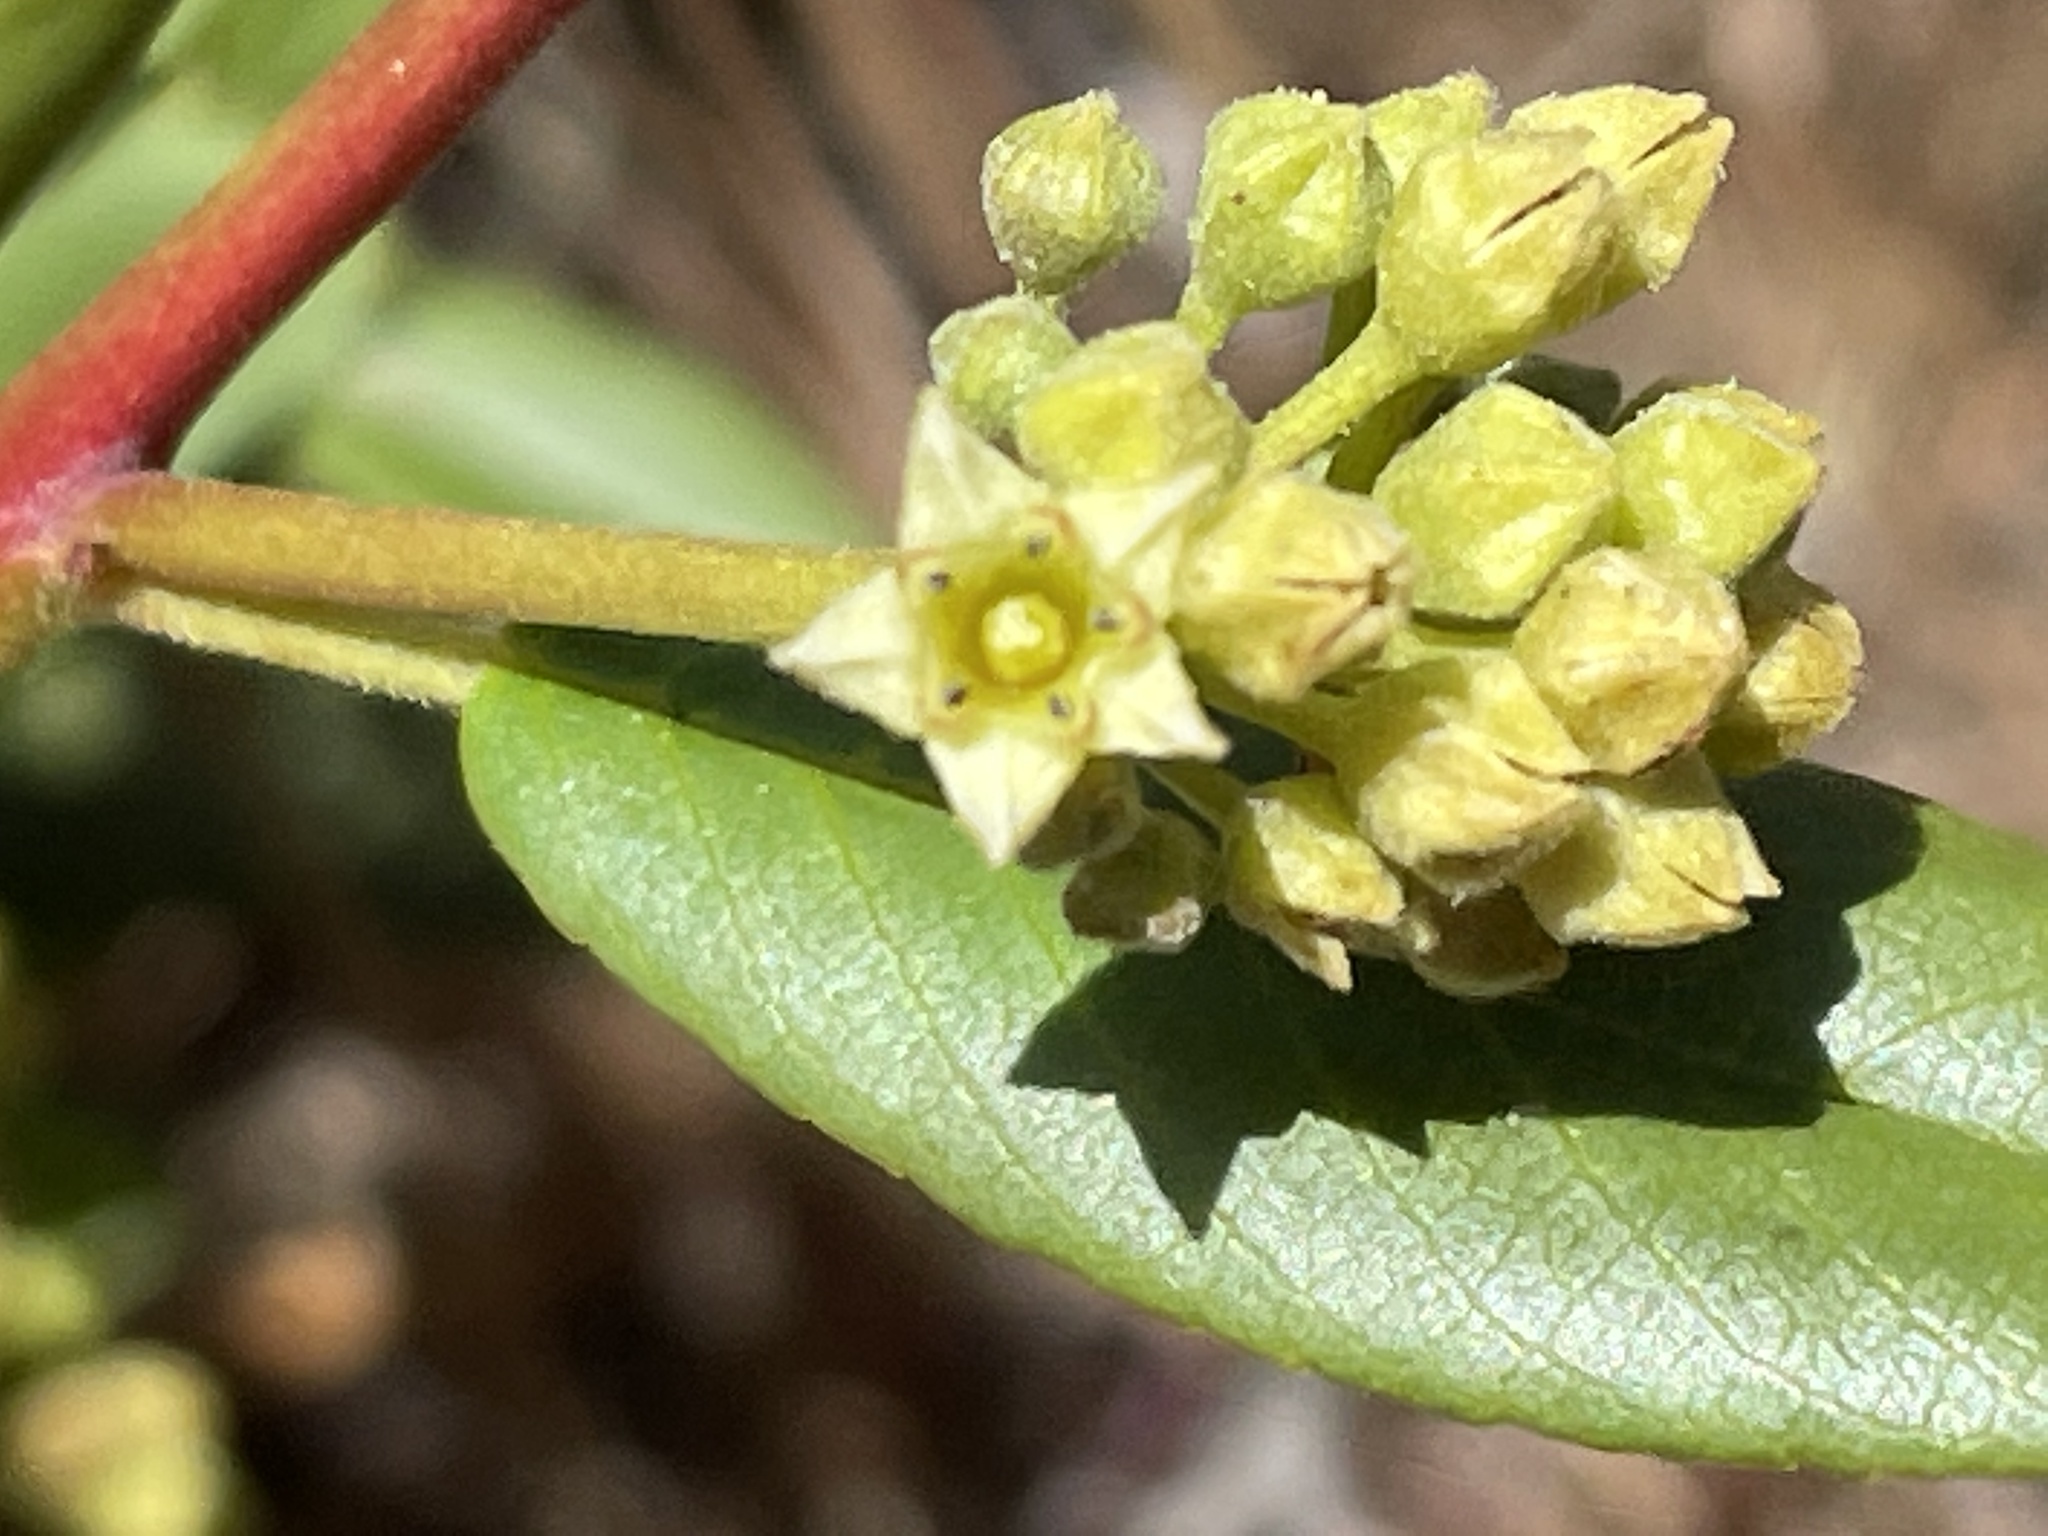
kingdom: Plantae
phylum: Tracheophyta
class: Magnoliopsida
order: Rosales
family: Rhamnaceae
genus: Frangula
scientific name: Frangula californica
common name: California buckthorn
